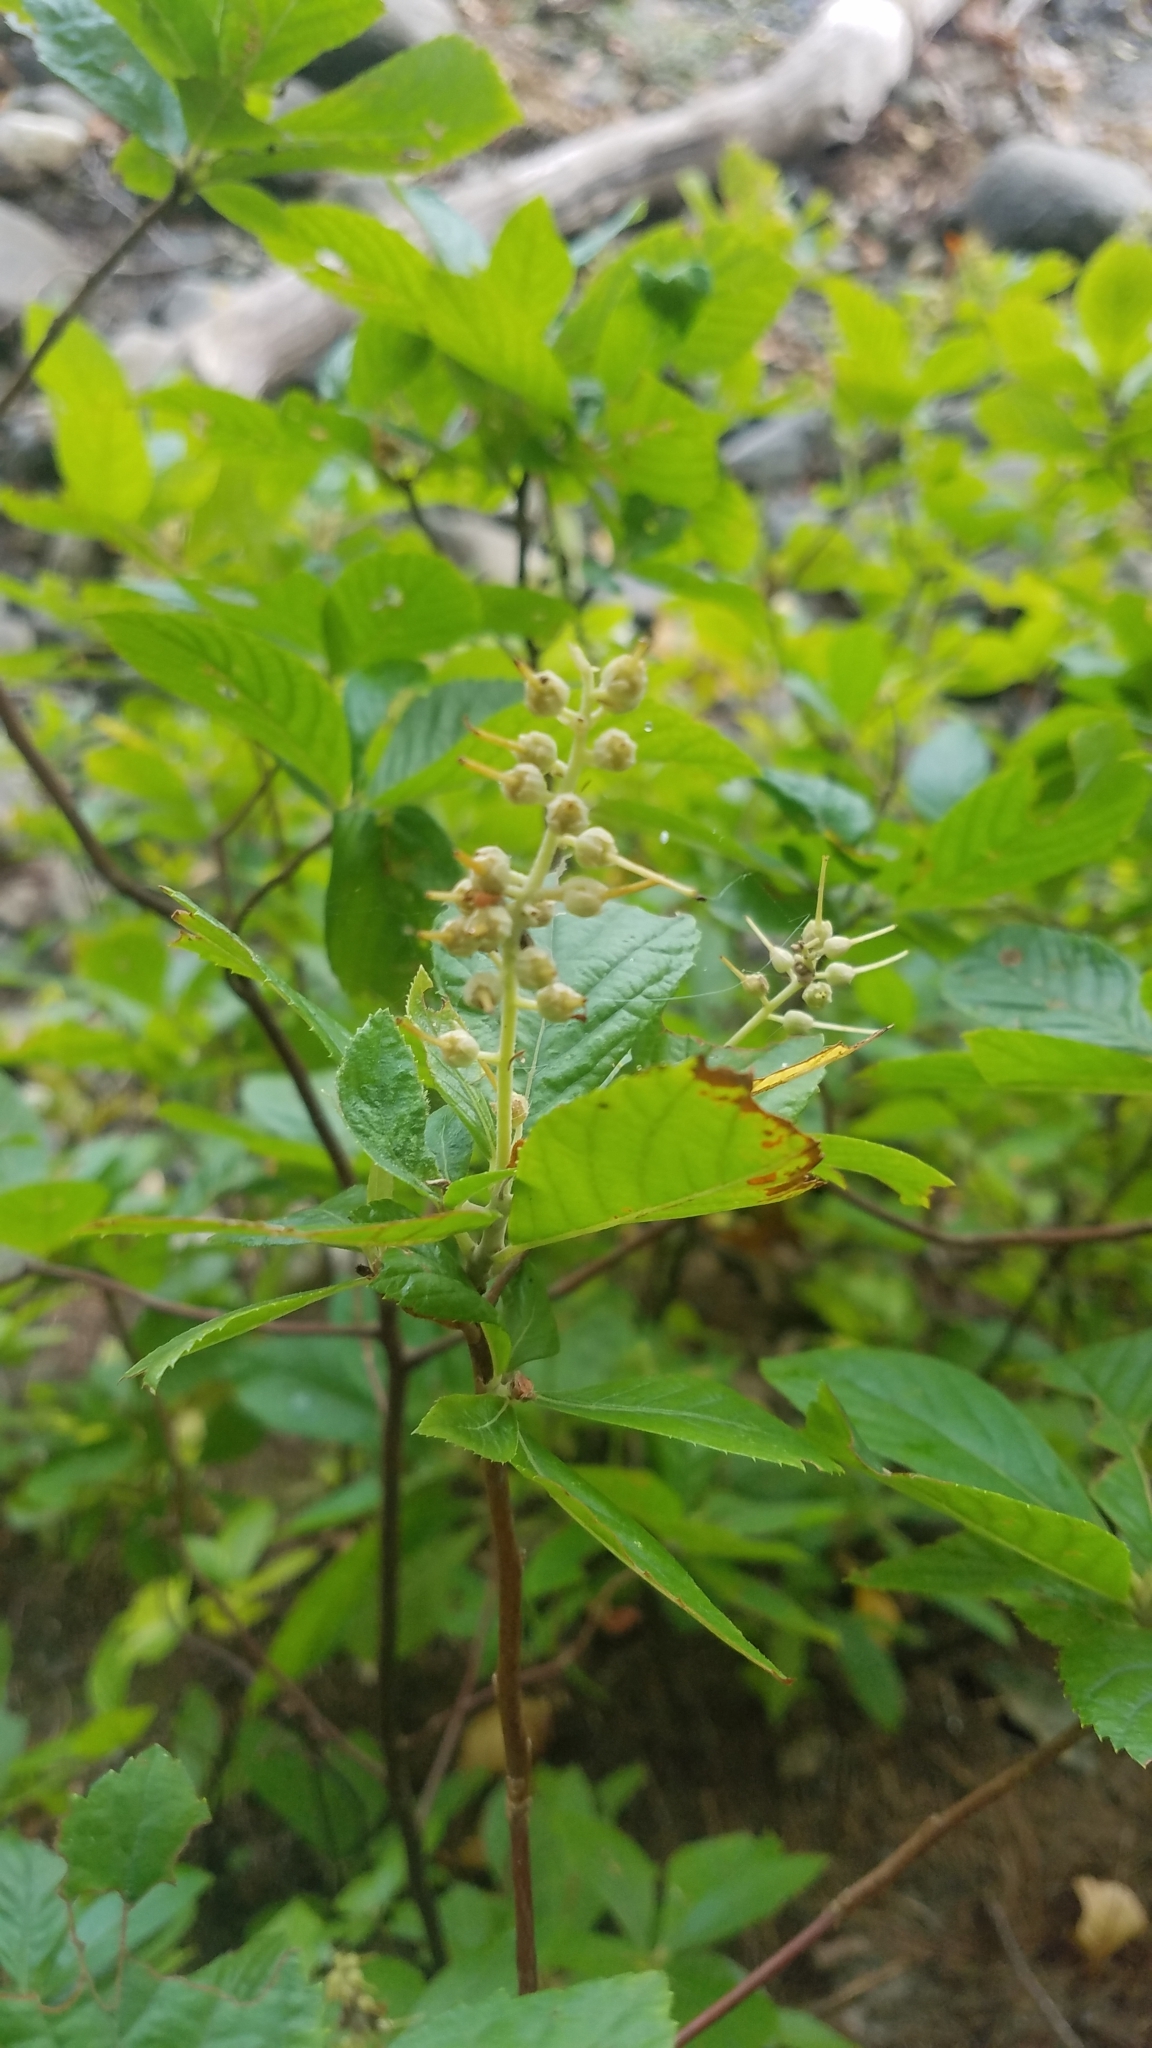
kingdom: Plantae
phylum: Tracheophyta
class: Magnoliopsida
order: Ericales
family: Clethraceae
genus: Clethra
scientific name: Clethra alnifolia
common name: Sweet pepperbush
